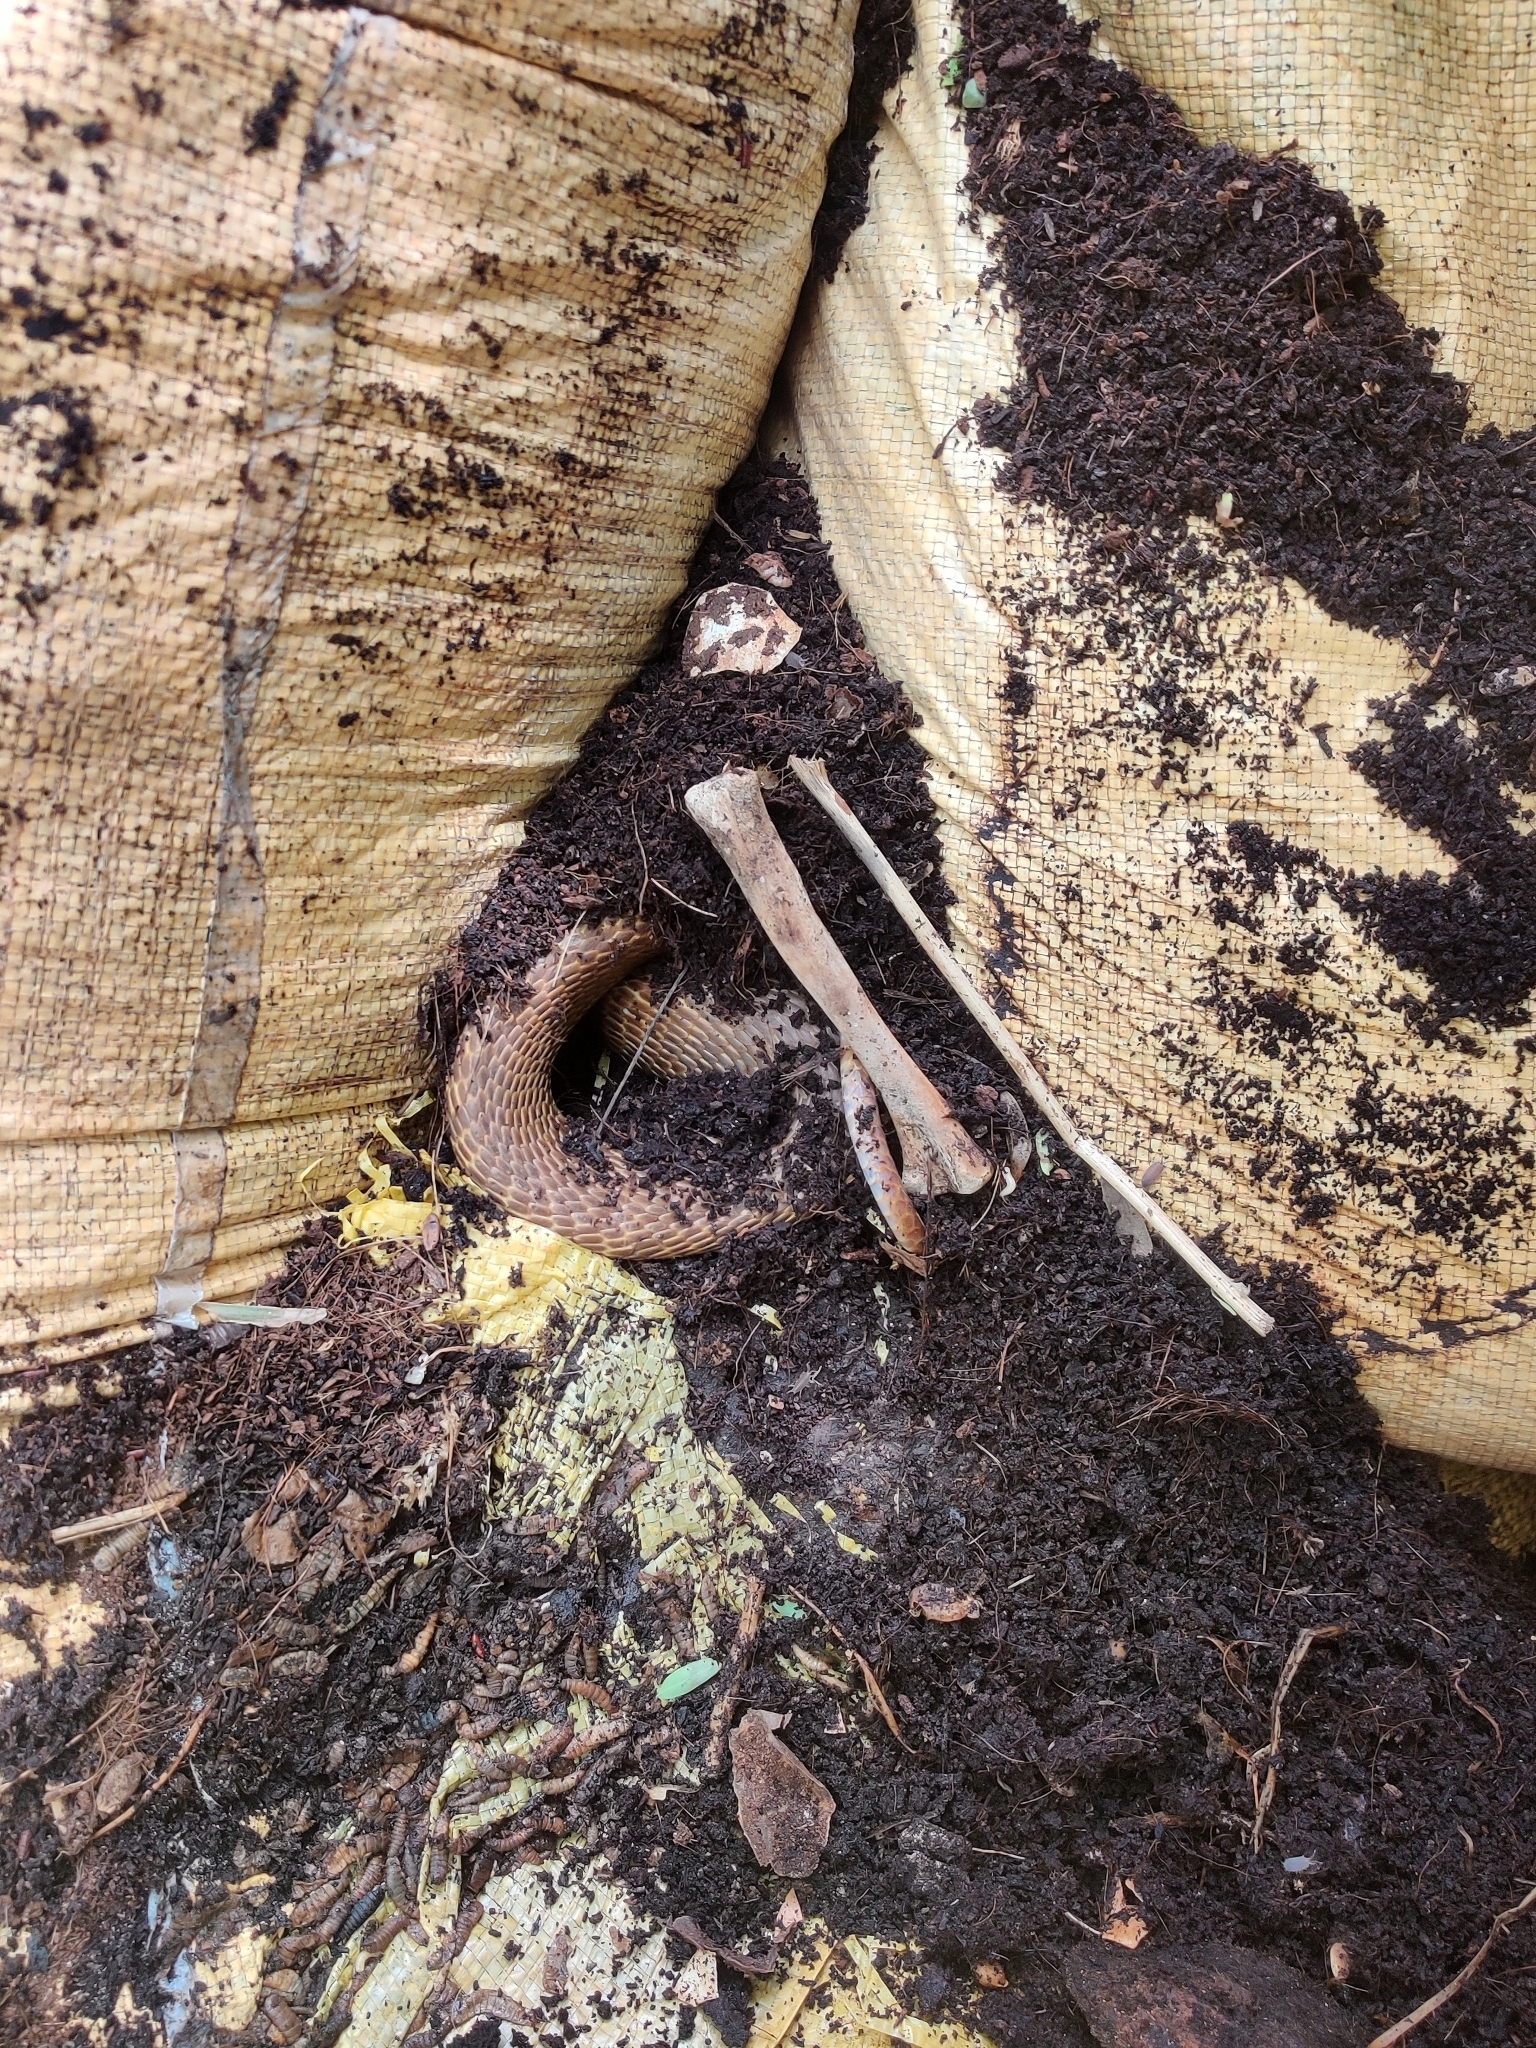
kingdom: Animalia
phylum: Chordata
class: Squamata
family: Elapidae
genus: Naja
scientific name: Naja naja
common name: Indian cobra
